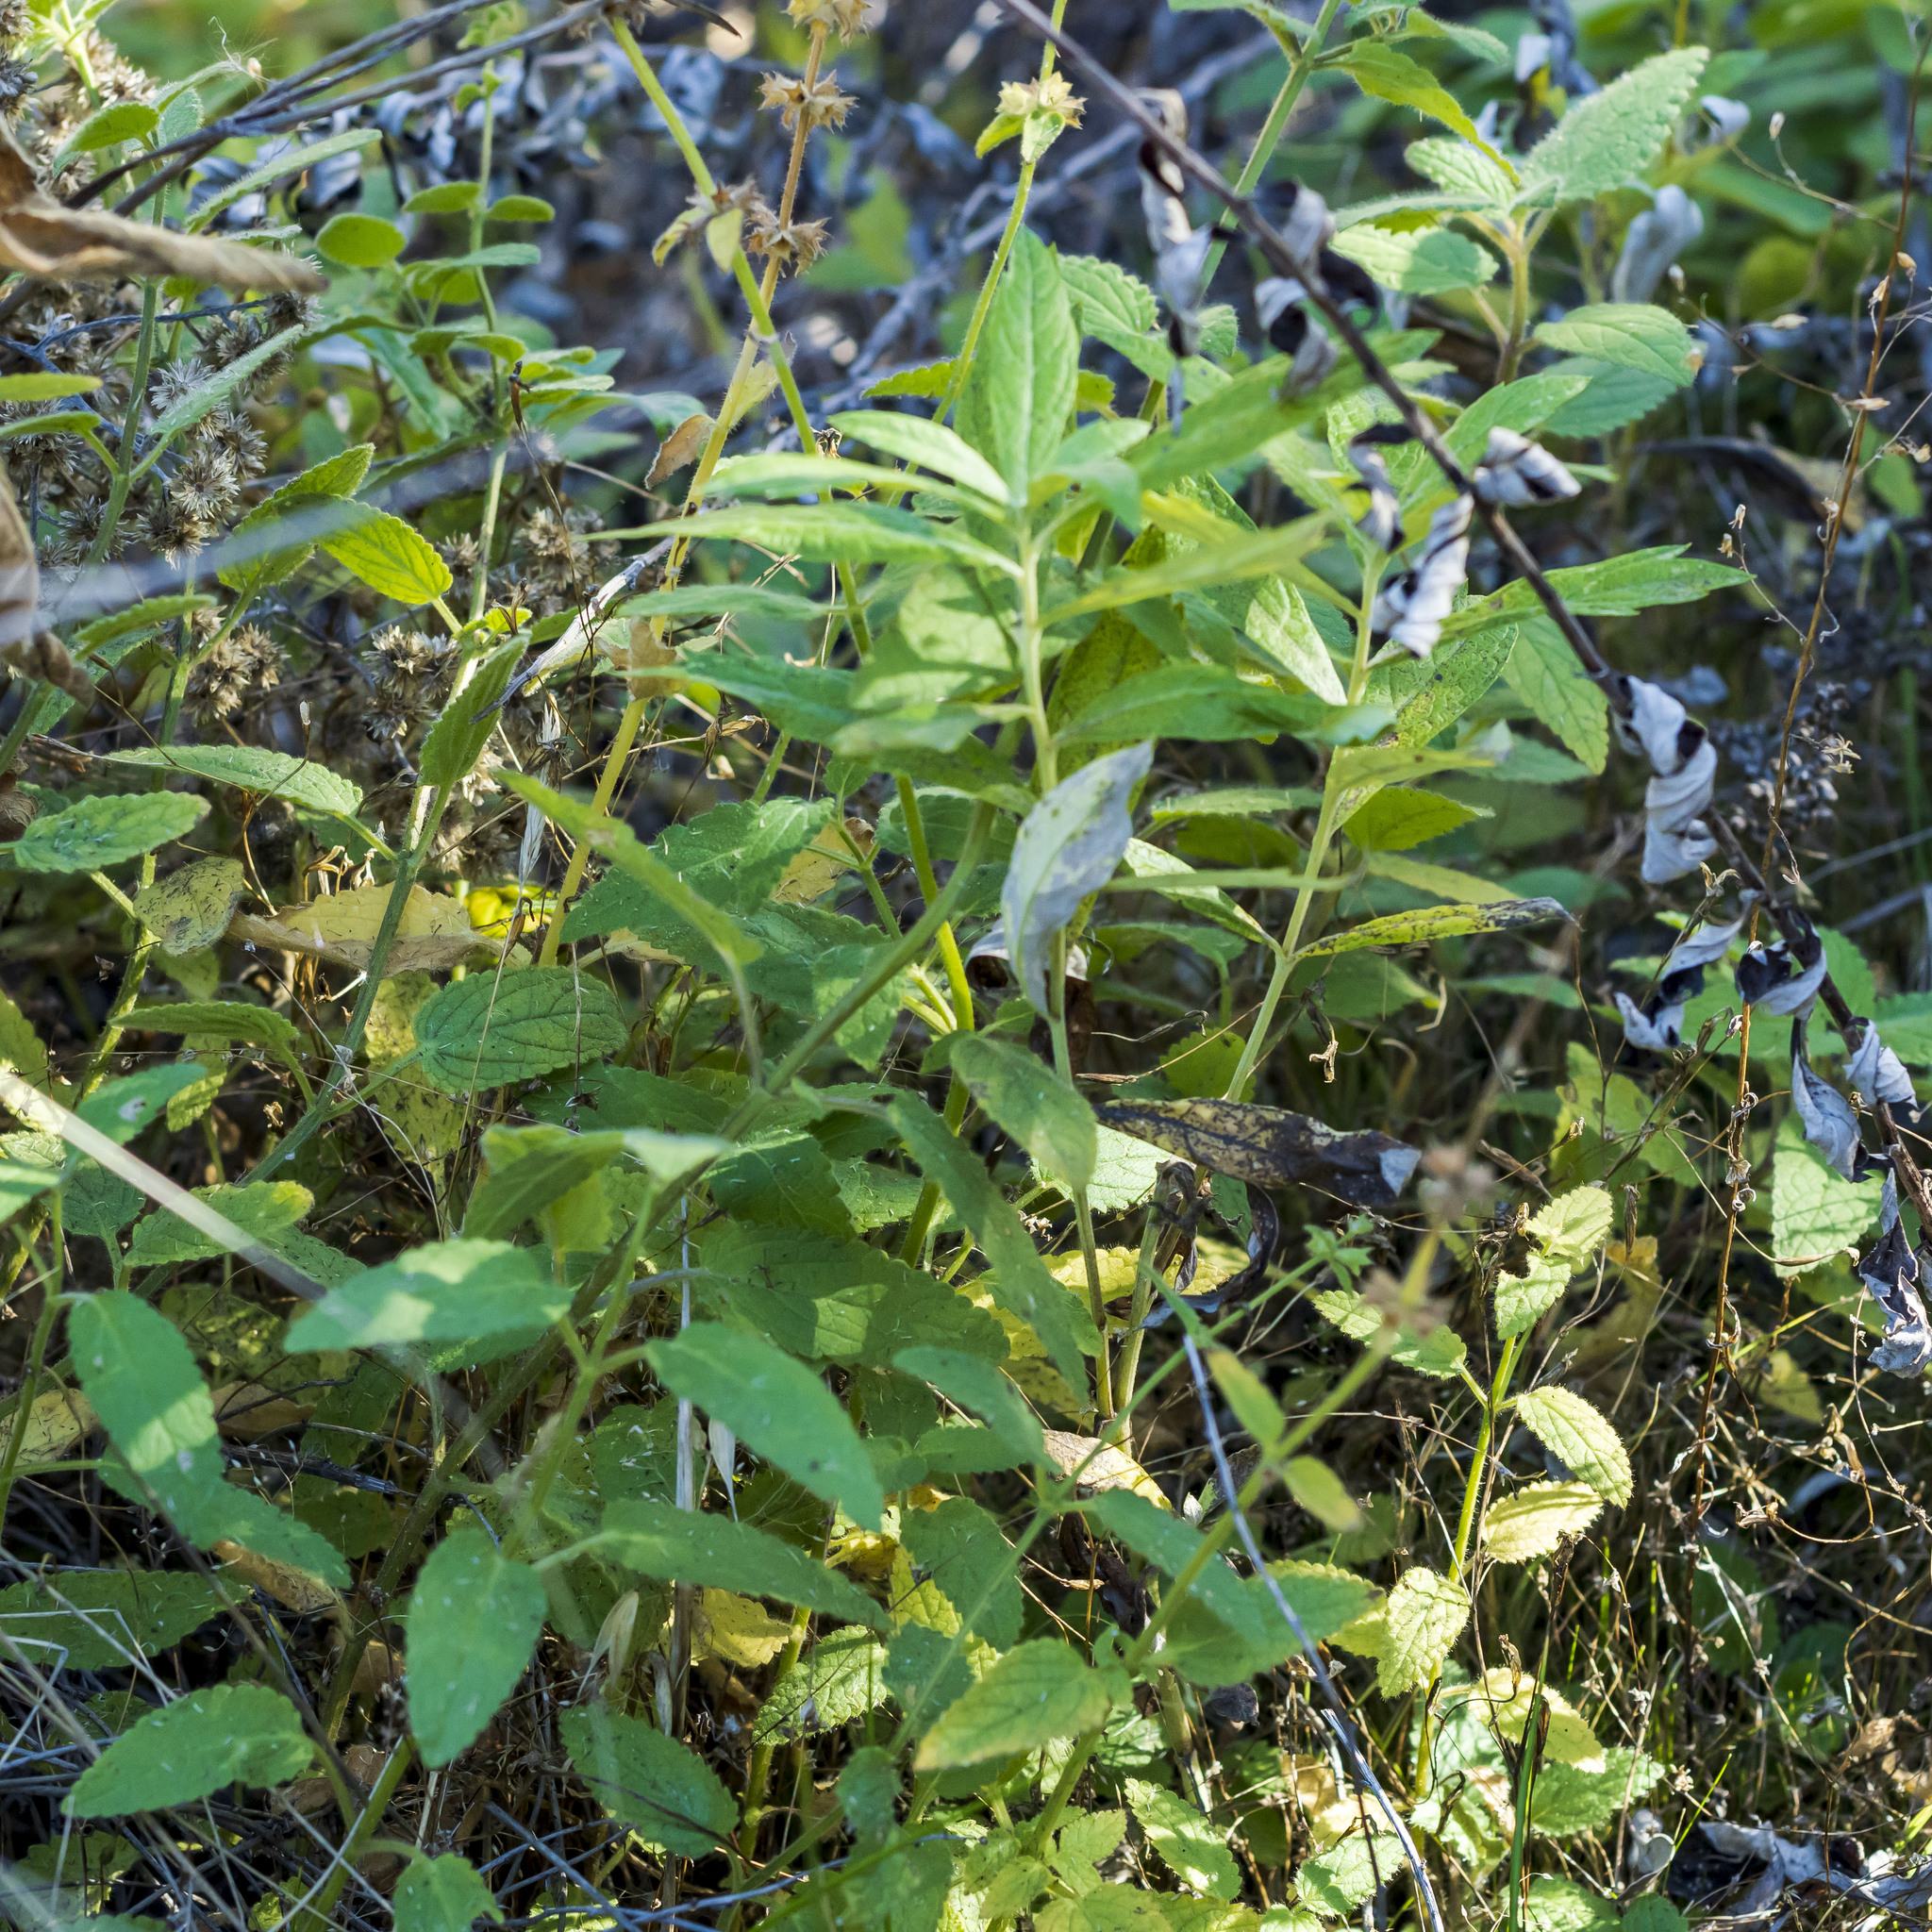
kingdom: Plantae
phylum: Tracheophyta
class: Magnoliopsida
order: Lamiales
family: Lamiaceae
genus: Stachys
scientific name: Stachys stebbinsii
